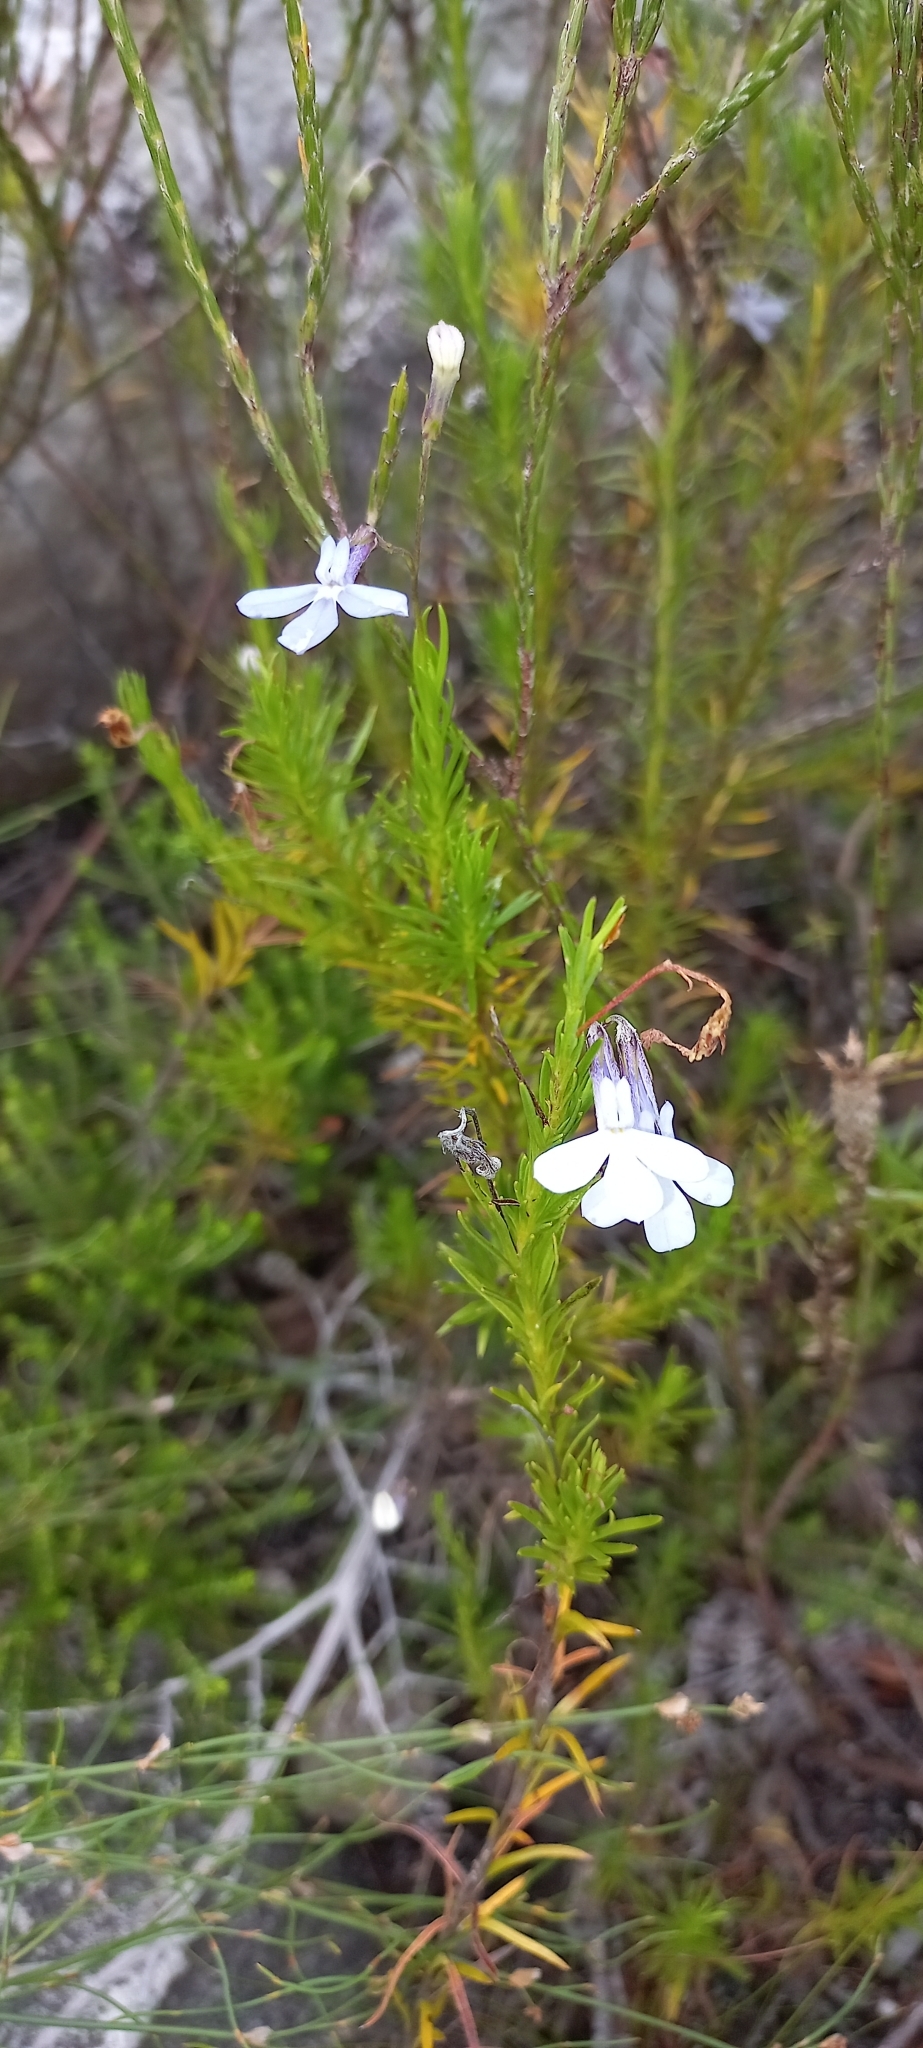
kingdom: Plantae
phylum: Tracheophyta
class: Magnoliopsida
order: Asterales
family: Campanulaceae
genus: Lobelia
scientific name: Lobelia pinifolia
